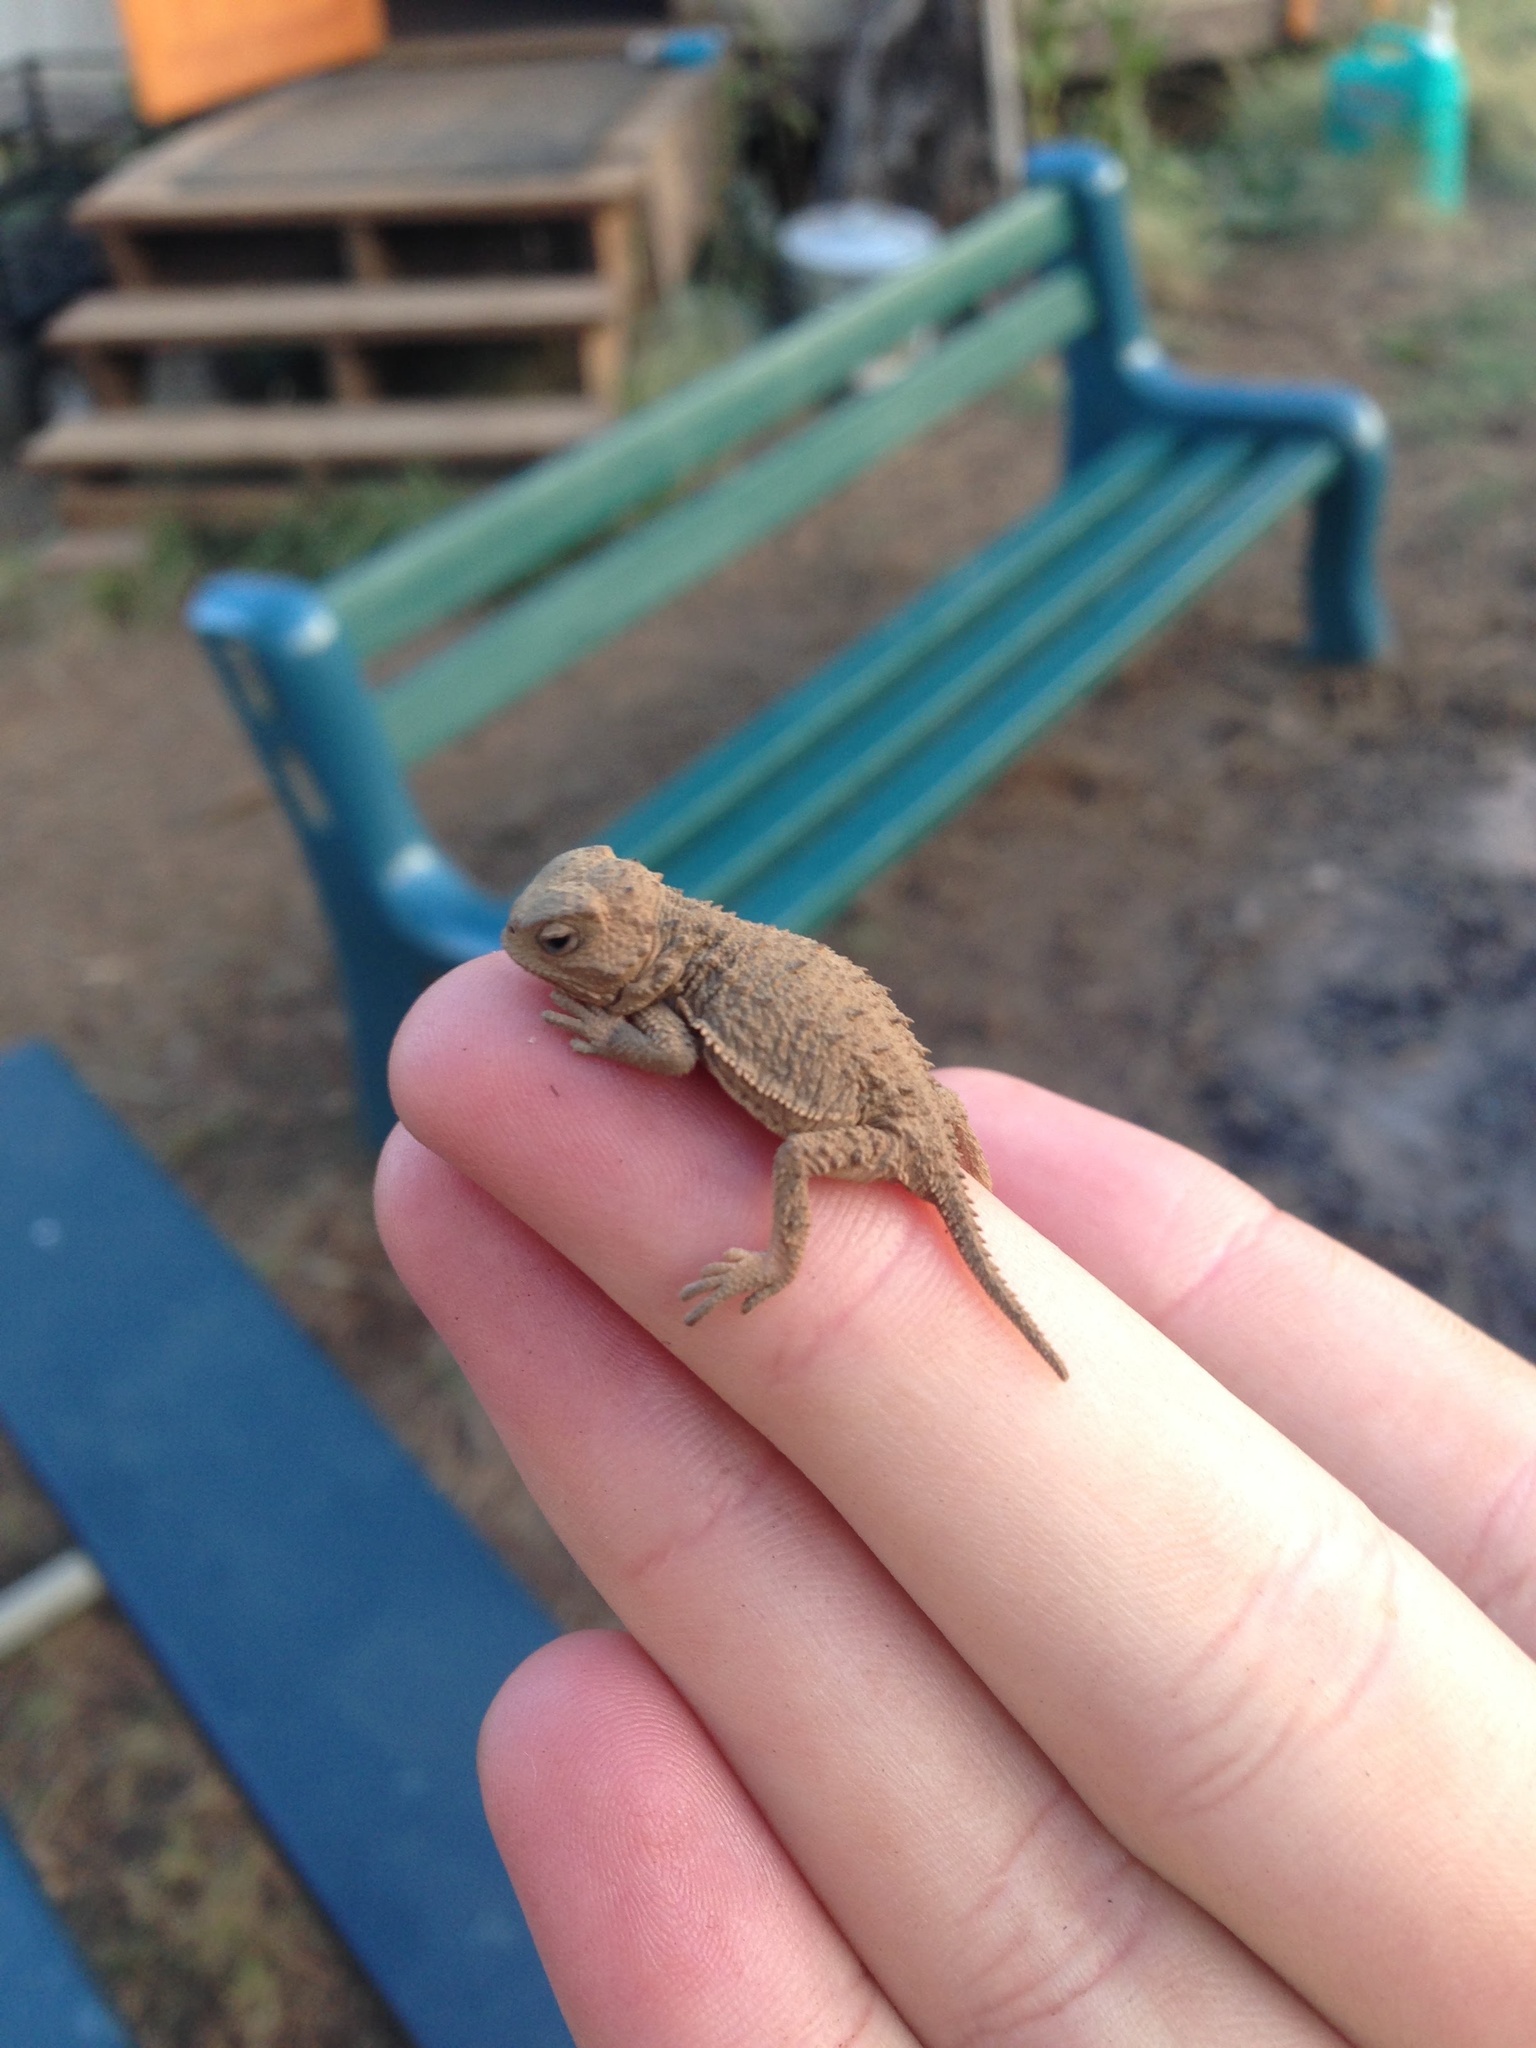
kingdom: Animalia
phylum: Chordata
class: Squamata
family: Phrynosomatidae
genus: Phrynosoma
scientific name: Phrynosoma hernandesi
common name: Greater short-horned lizard
